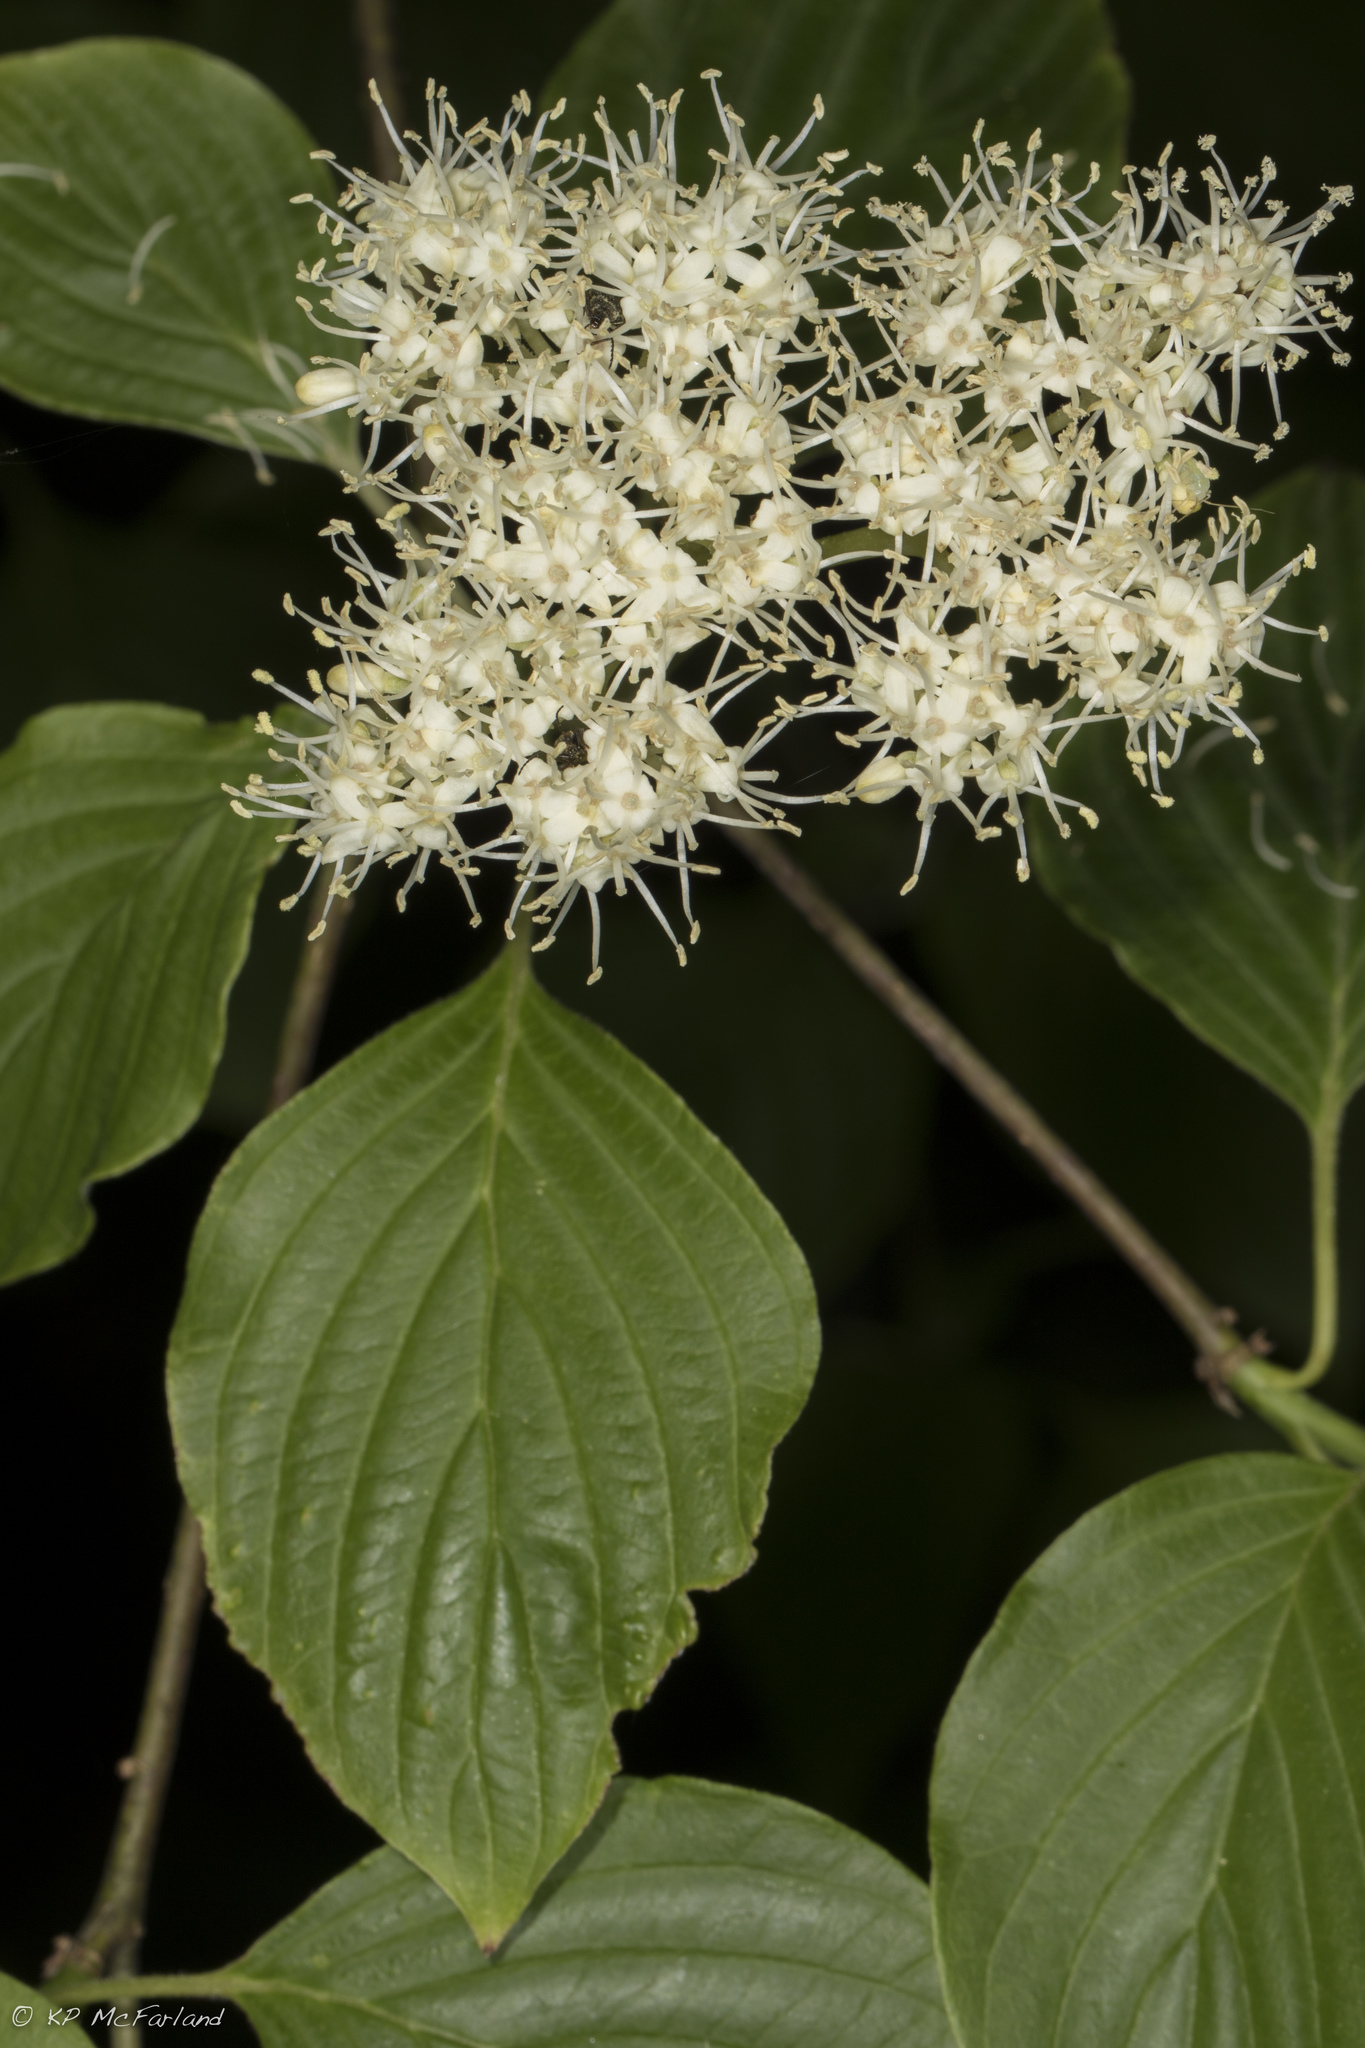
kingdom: Plantae
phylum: Tracheophyta
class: Magnoliopsida
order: Cornales
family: Cornaceae
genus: Cornus
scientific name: Cornus alternifolia
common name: Pagoda dogwood
